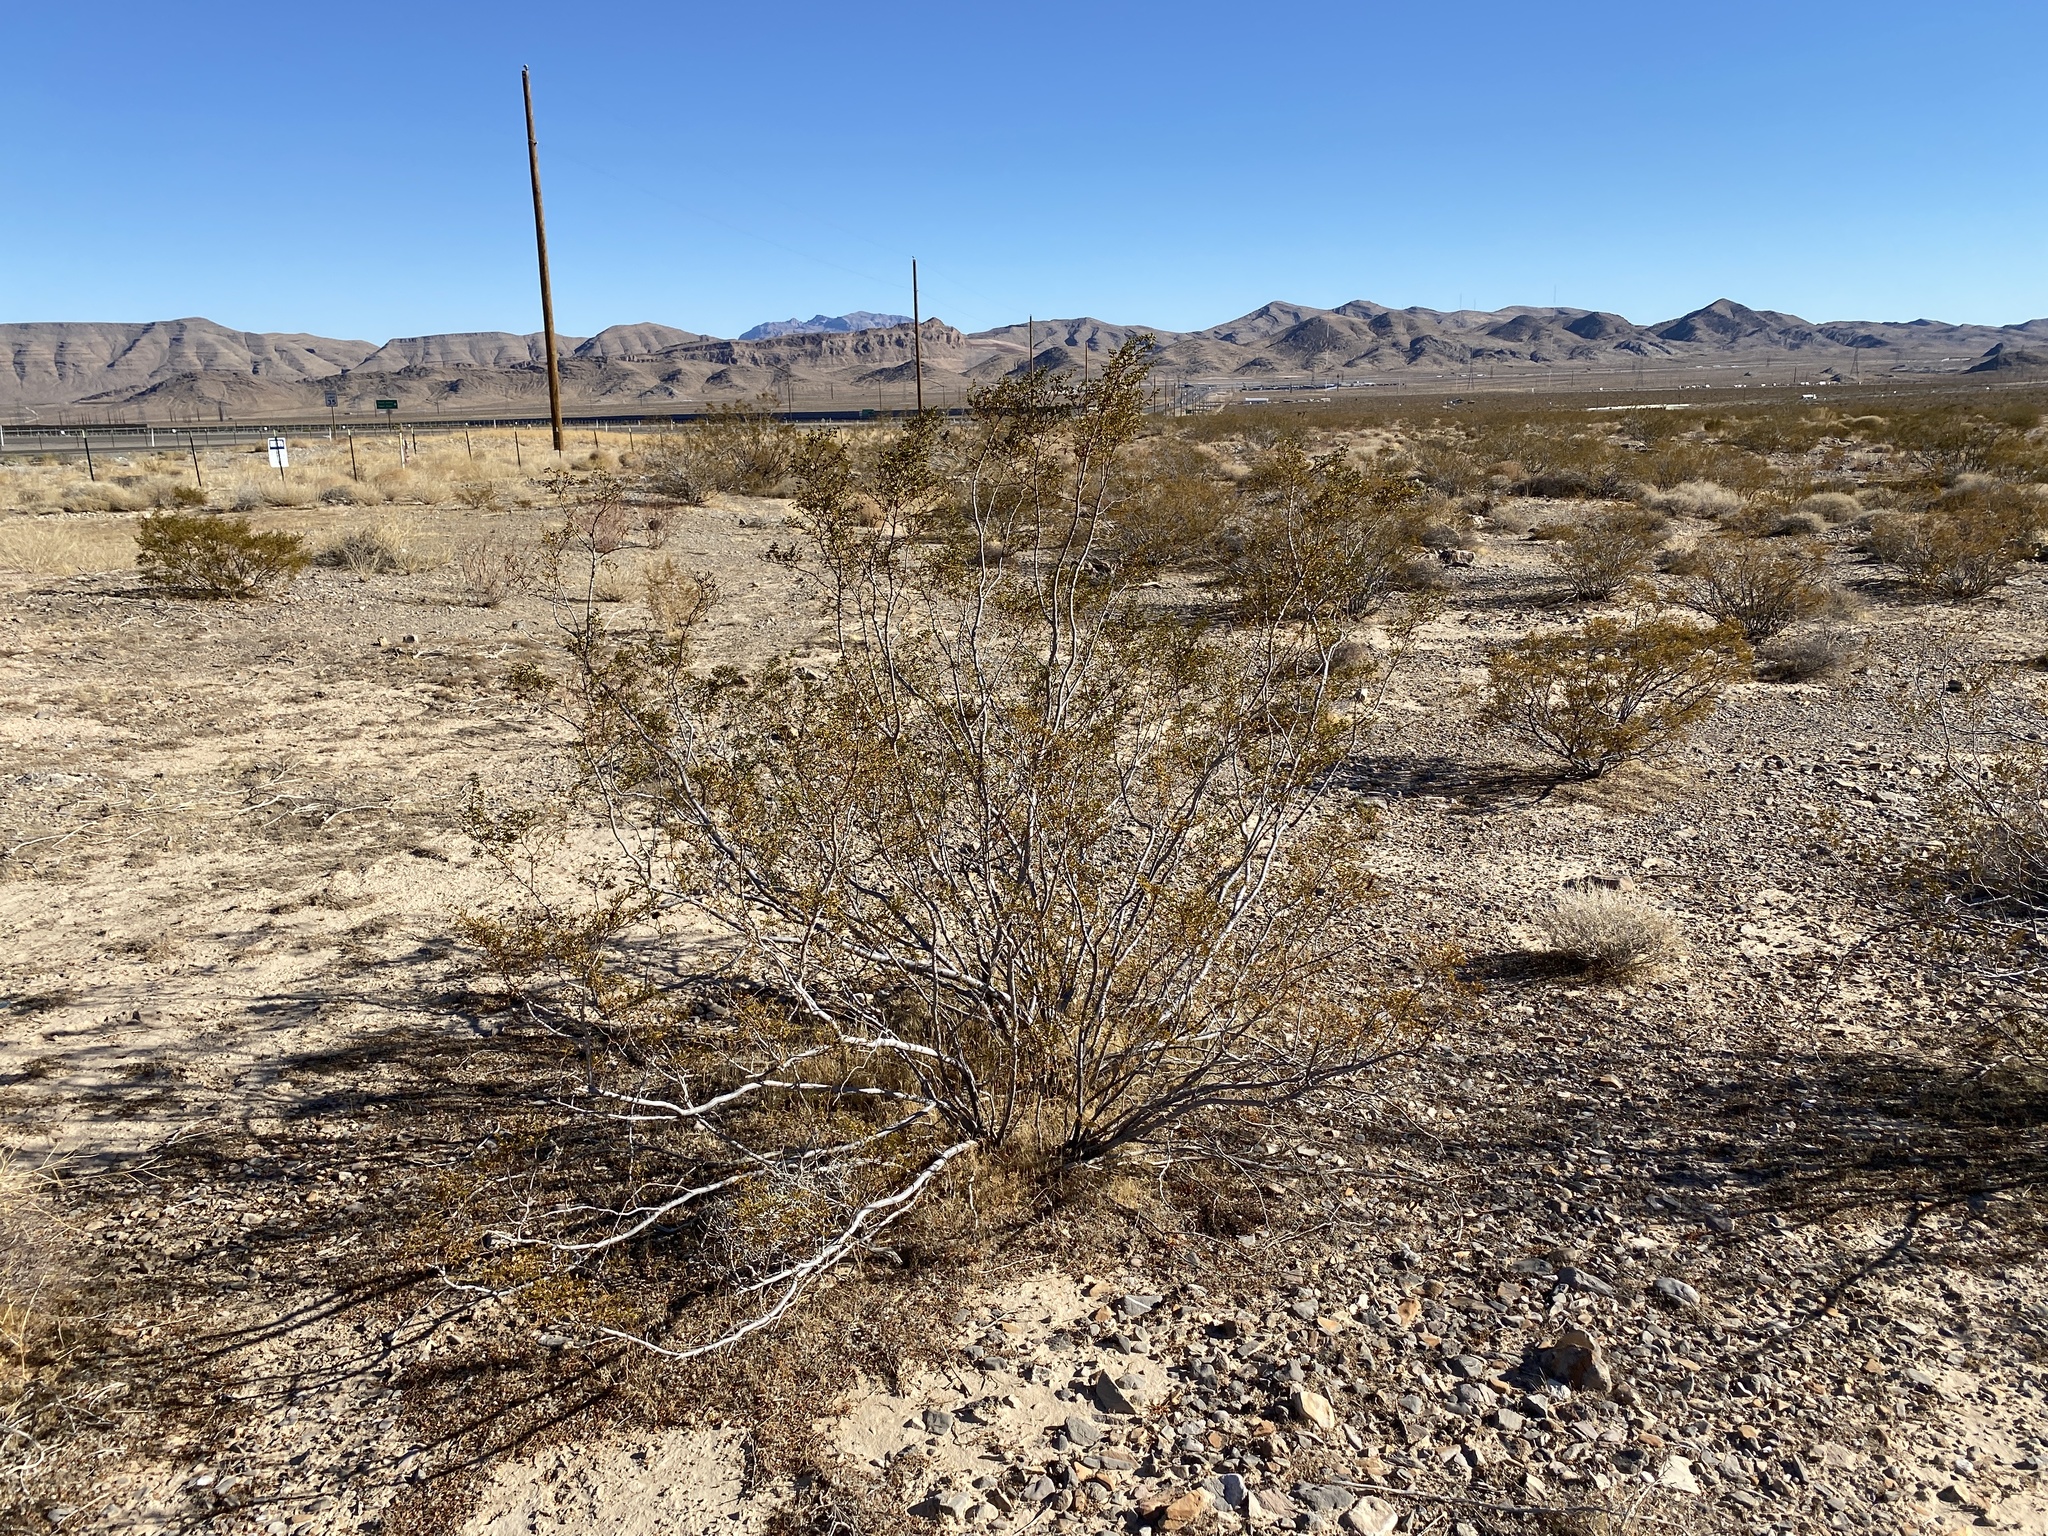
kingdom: Plantae
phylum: Tracheophyta
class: Magnoliopsida
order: Zygophyllales
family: Zygophyllaceae
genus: Larrea
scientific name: Larrea tridentata
